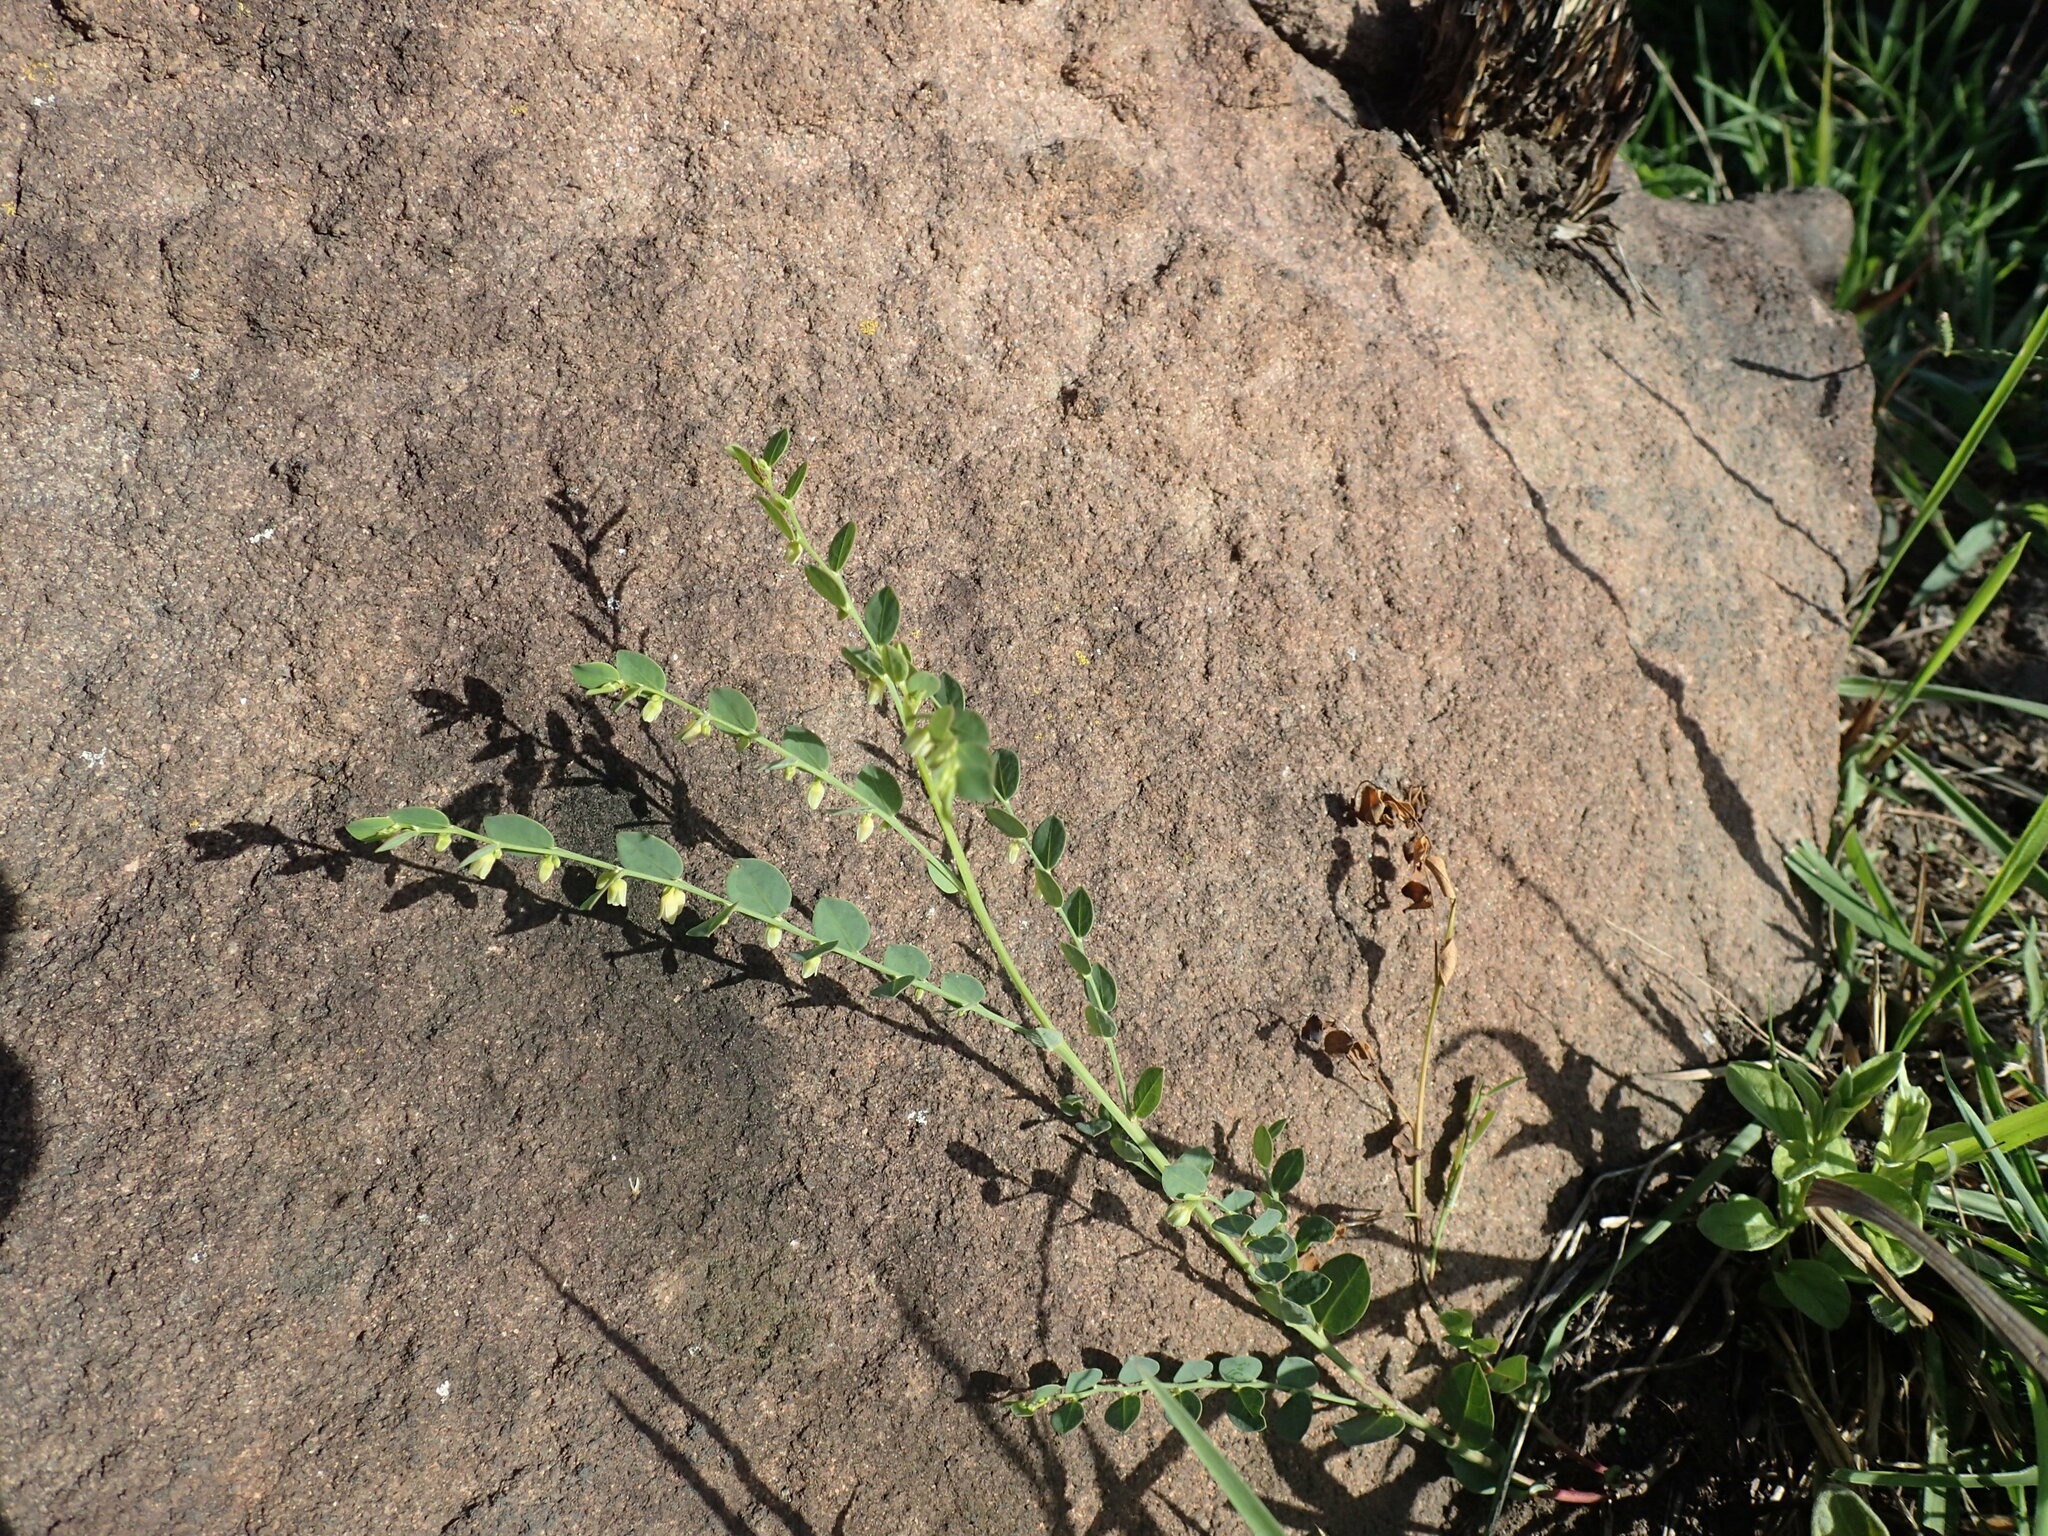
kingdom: Plantae
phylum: Tracheophyta
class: Magnoliopsida
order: Malpighiales
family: Phyllanthaceae
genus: Phyllanthus
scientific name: Phyllanthus glaucophyllus
